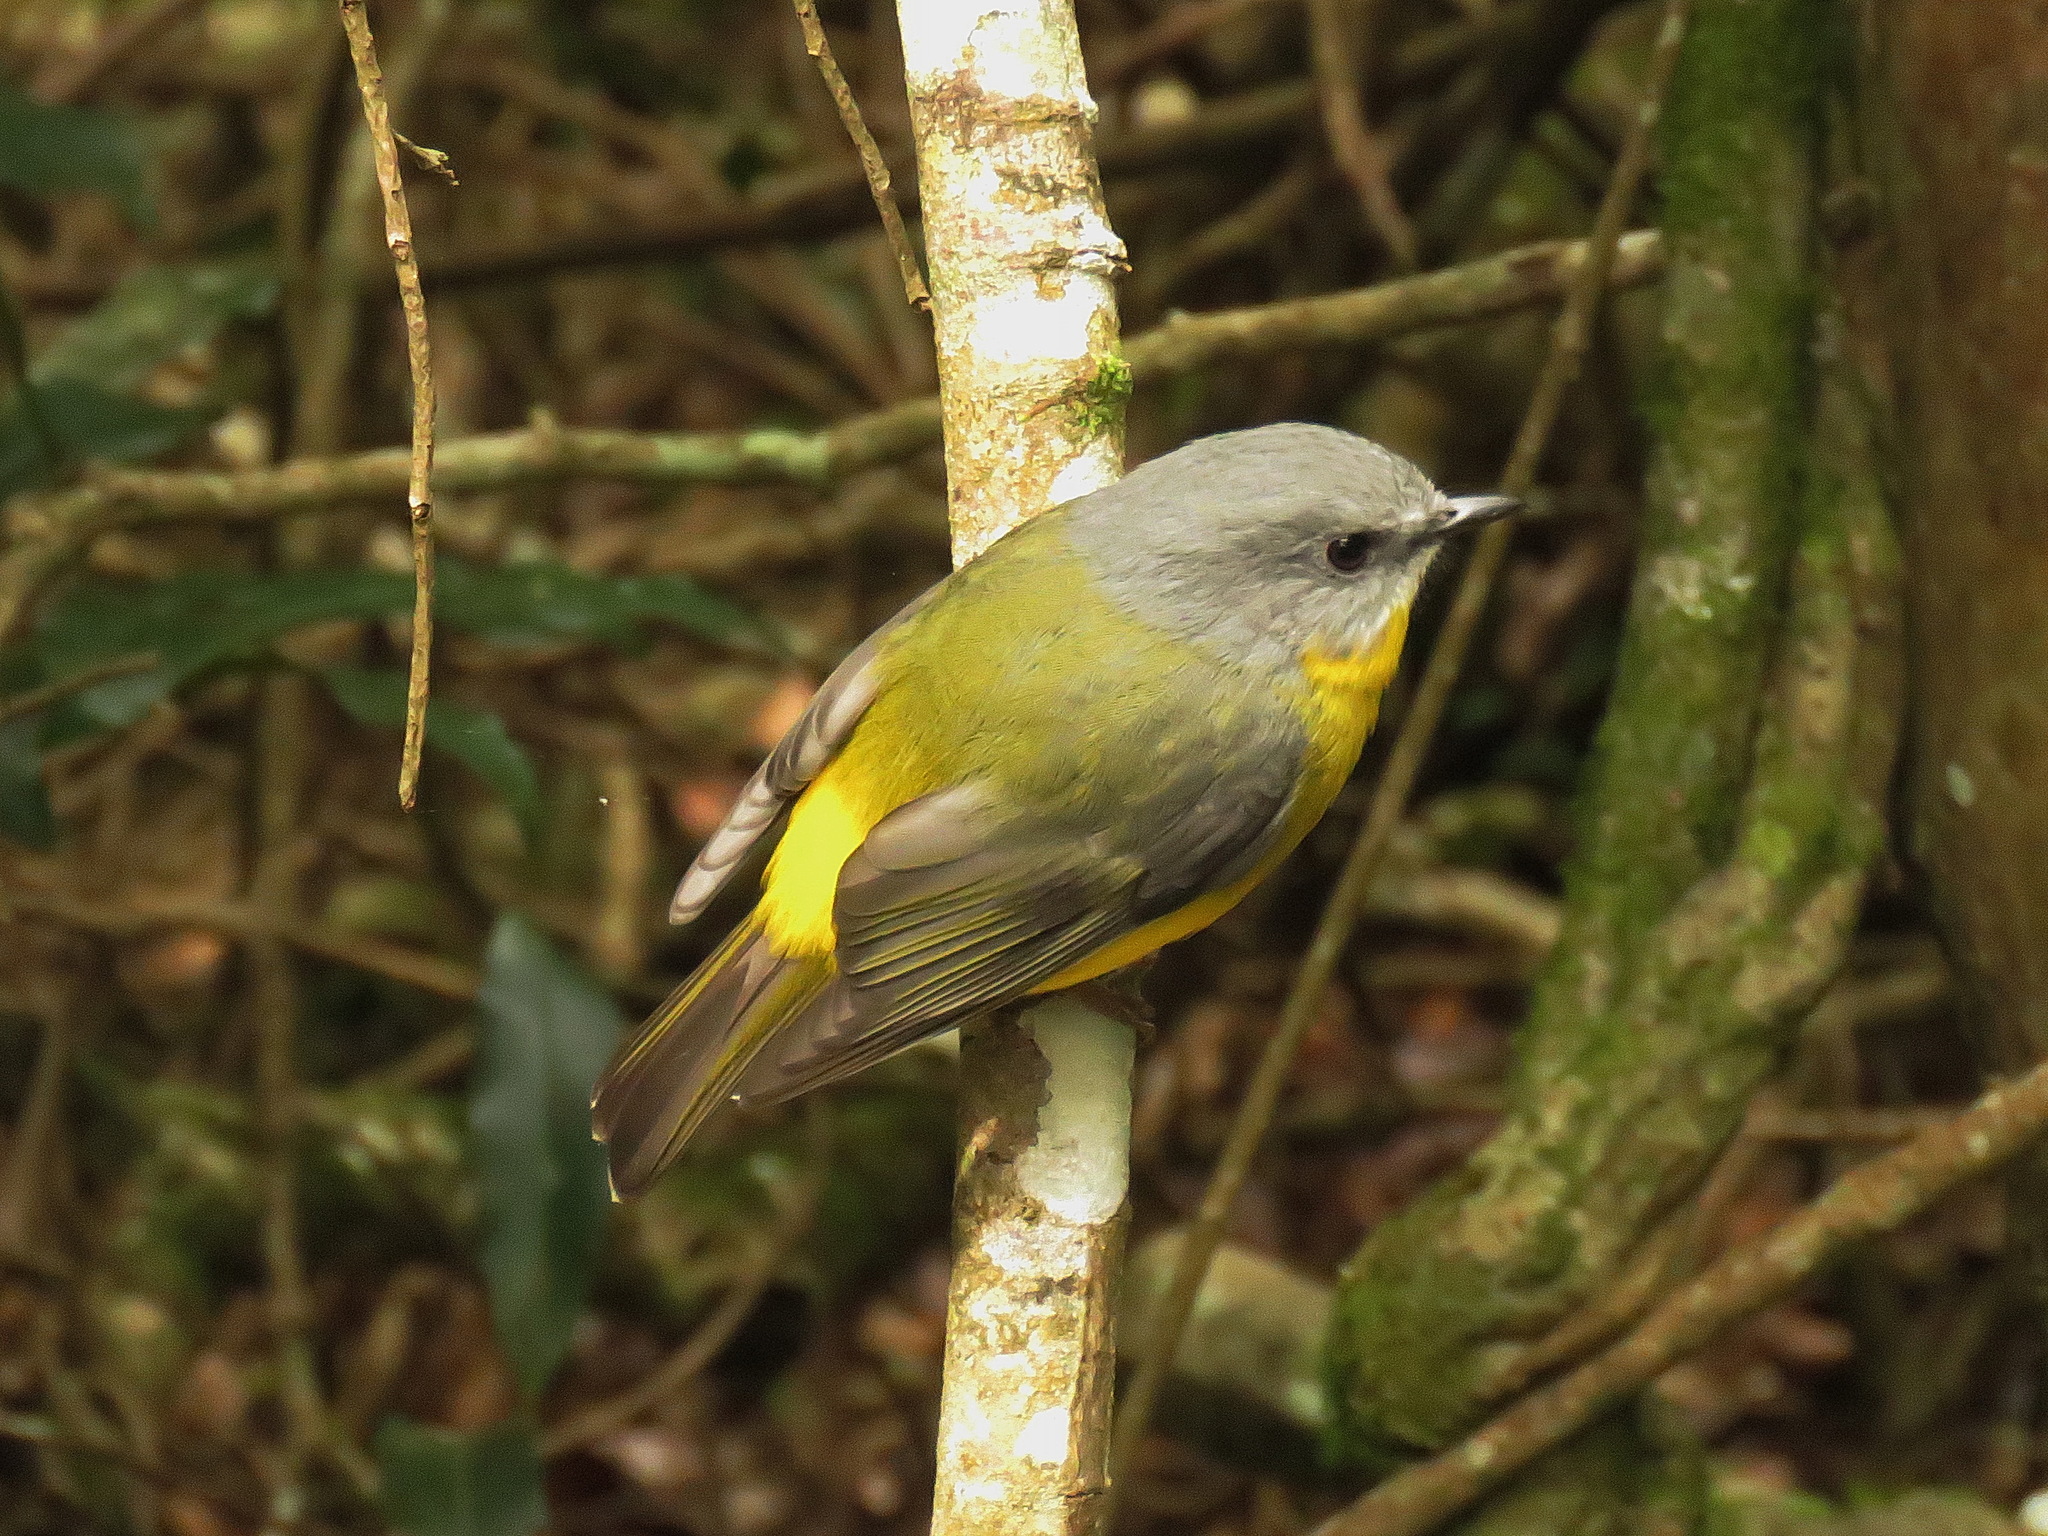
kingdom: Animalia
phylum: Chordata
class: Aves
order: Passeriformes
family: Petroicidae
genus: Eopsaltria
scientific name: Eopsaltria australis
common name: Eastern yellow robin
